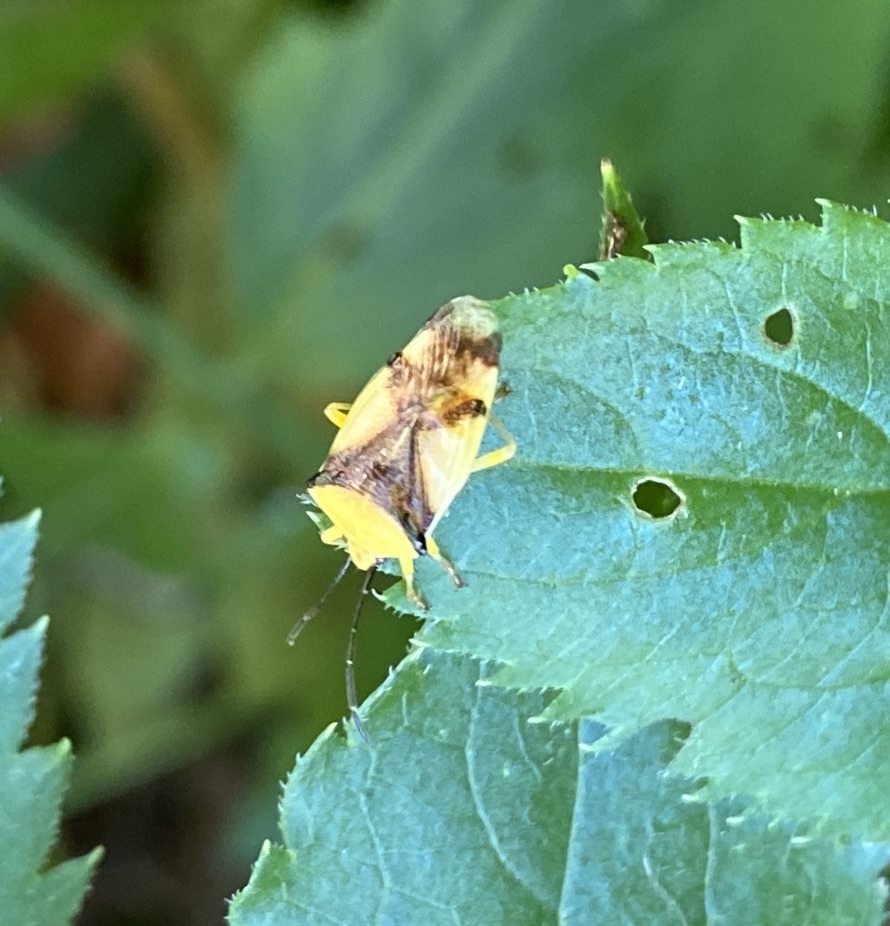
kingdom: Animalia
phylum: Arthropoda
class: Insecta
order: Hemiptera
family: Acanthosomatidae
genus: Elasmostethus
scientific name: Elasmostethus atricornis
